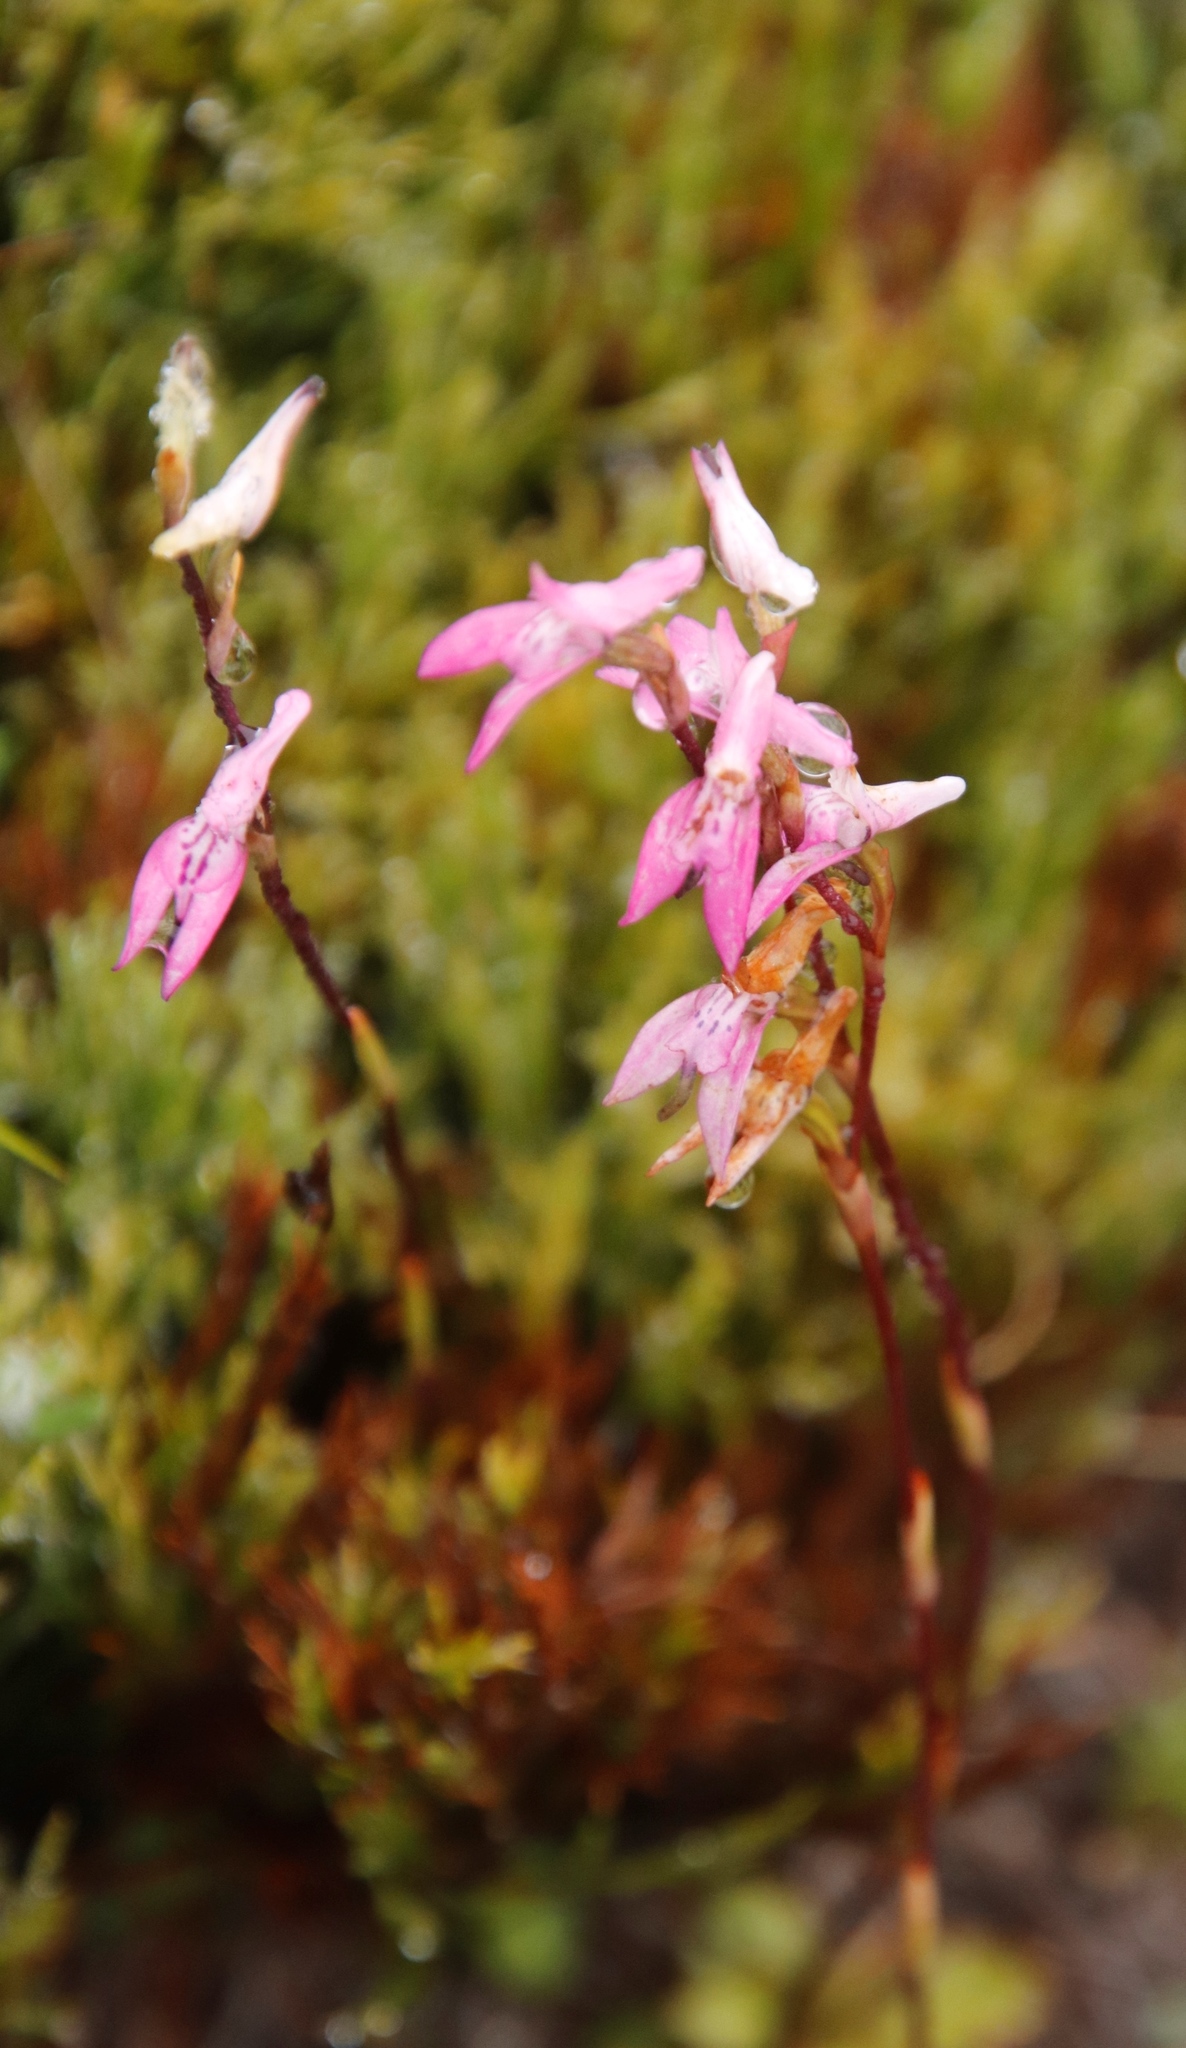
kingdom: Plantae
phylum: Tracheophyta
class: Liliopsida
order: Asparagales
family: Orchidaceae
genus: Disa
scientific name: Disa inflexa
